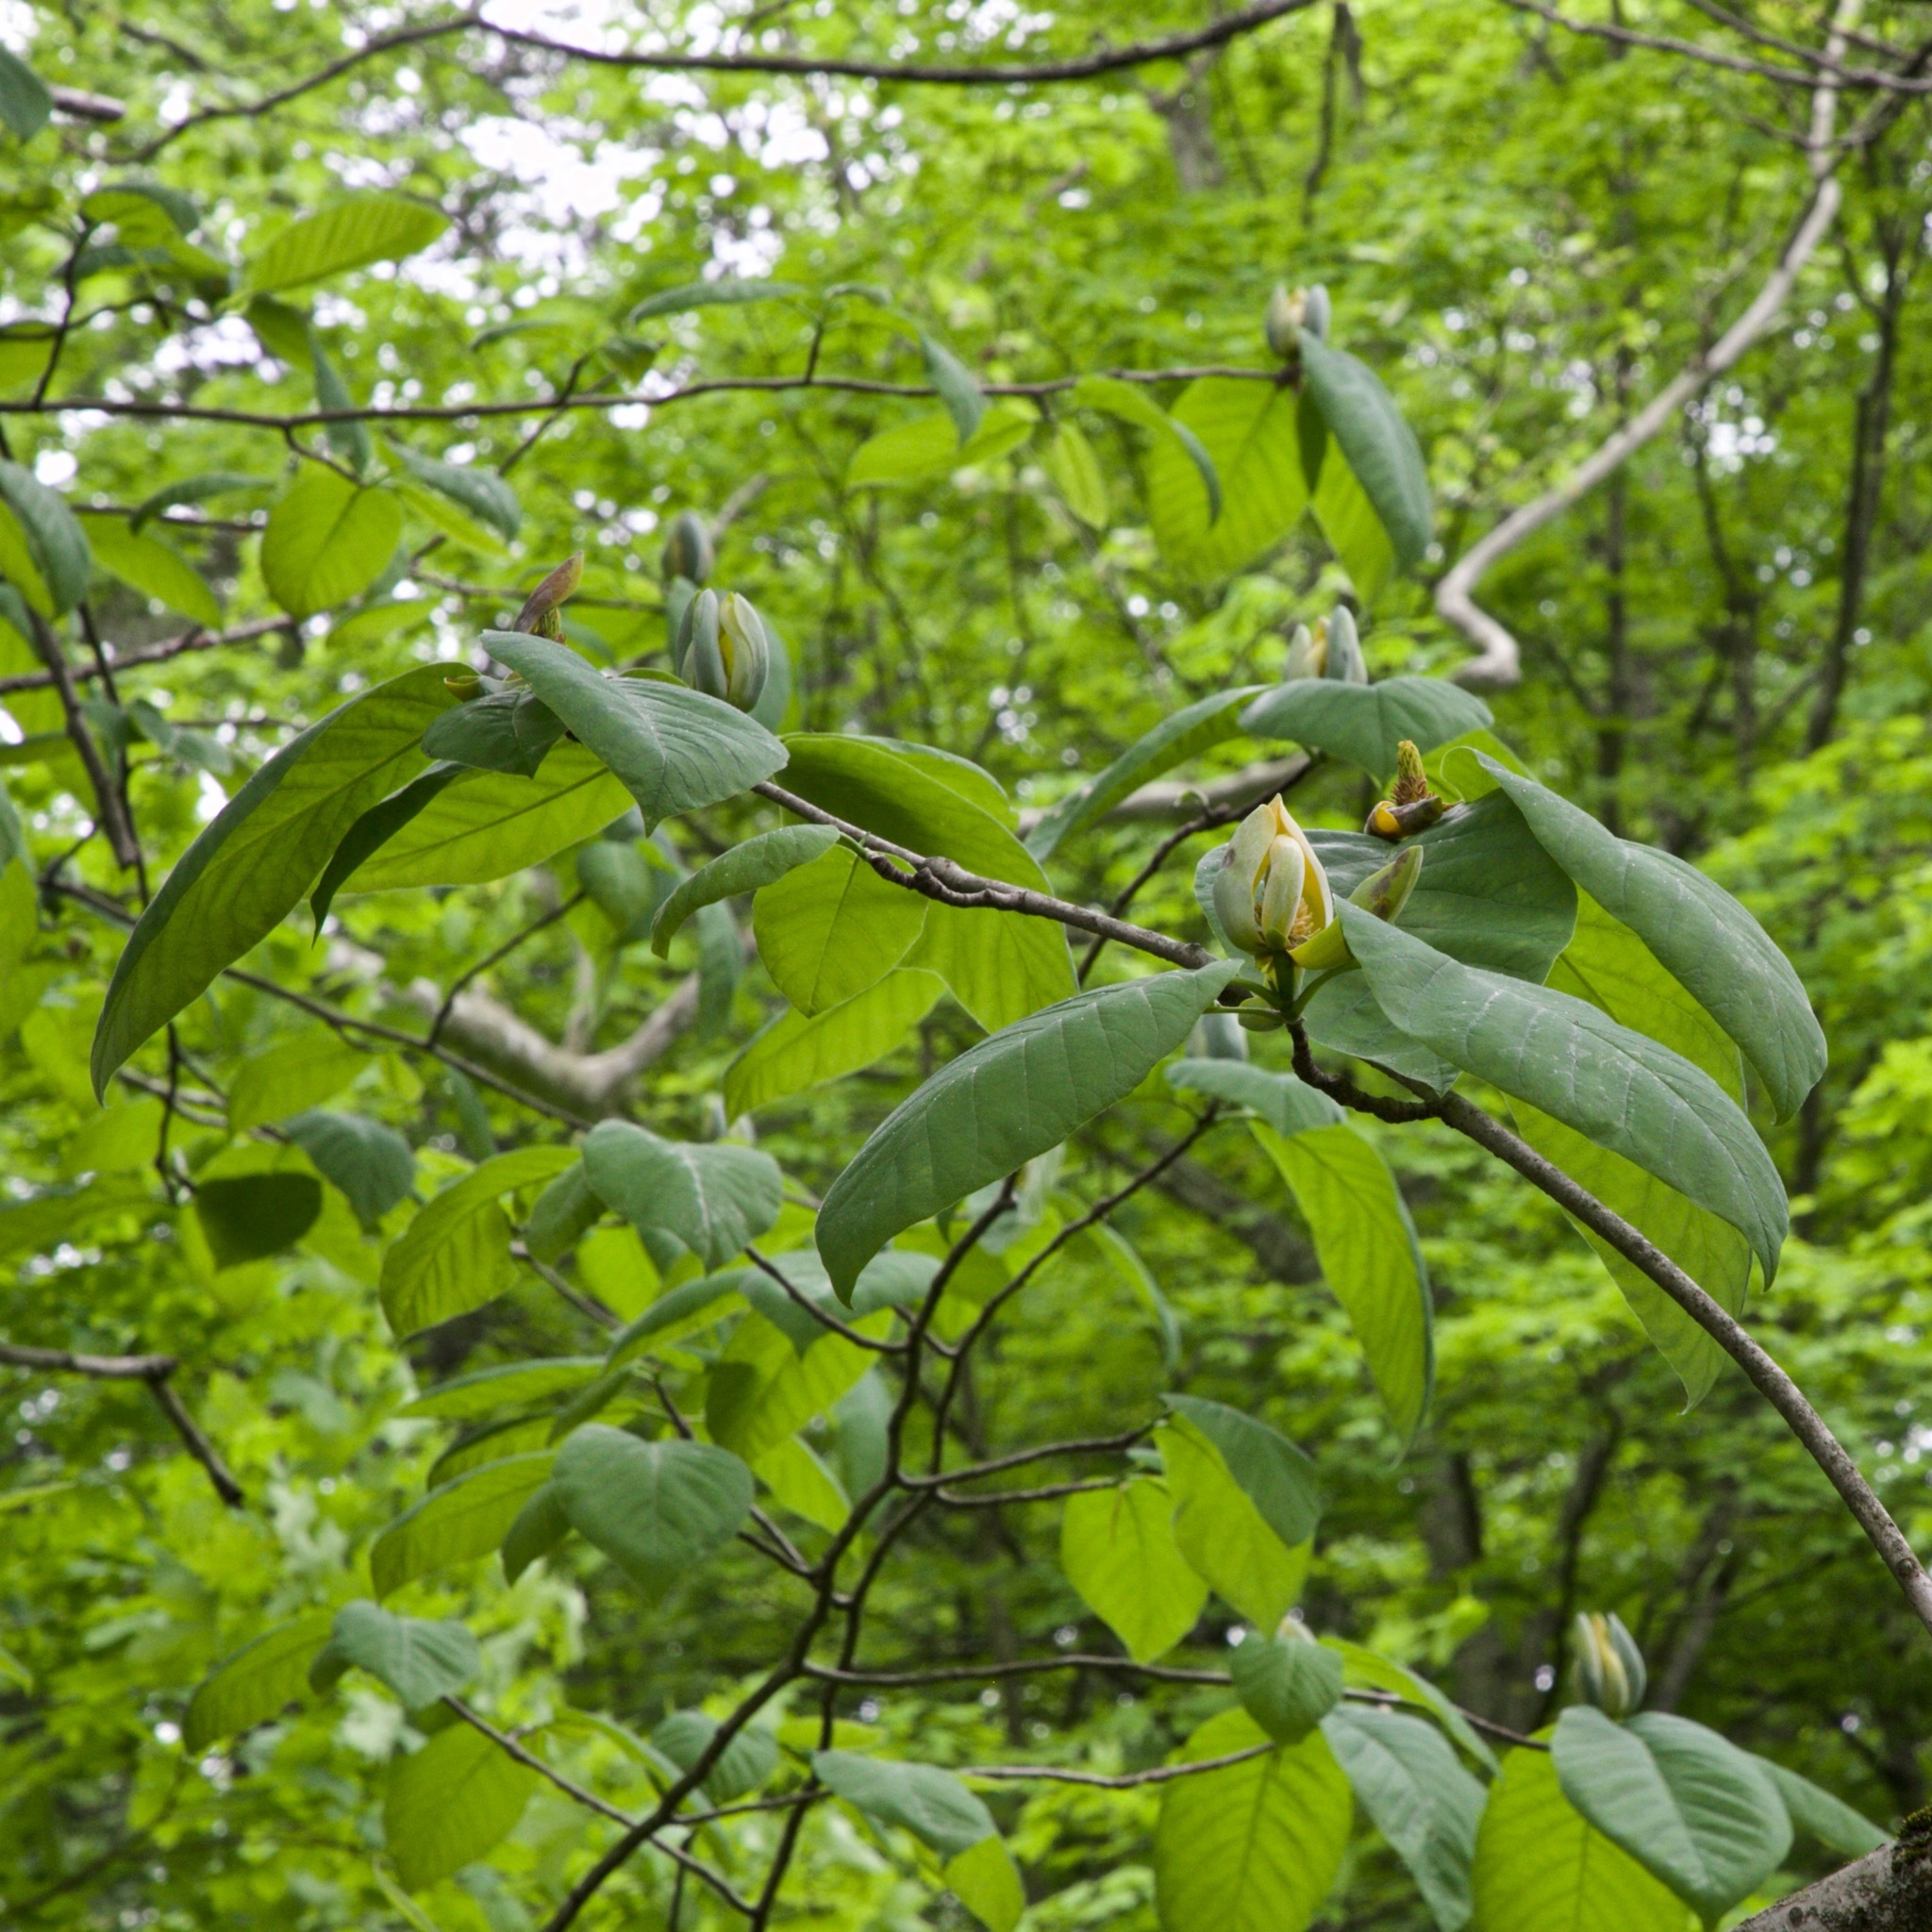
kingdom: Plantae
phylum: Tracheophyta
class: Magnoliopsida
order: Magnoliales
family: Magnoliaceae
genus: Magnolia
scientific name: Magnolia acuminata
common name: Cucumber magnolia
